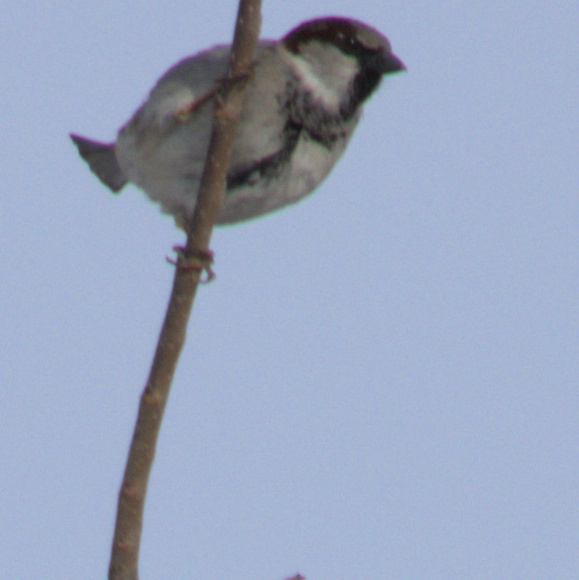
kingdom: Animalia
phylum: Chordata
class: Aves
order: Passeriformes
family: Passeridae
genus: Passer
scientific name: Passer domesticus
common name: House sparrow
